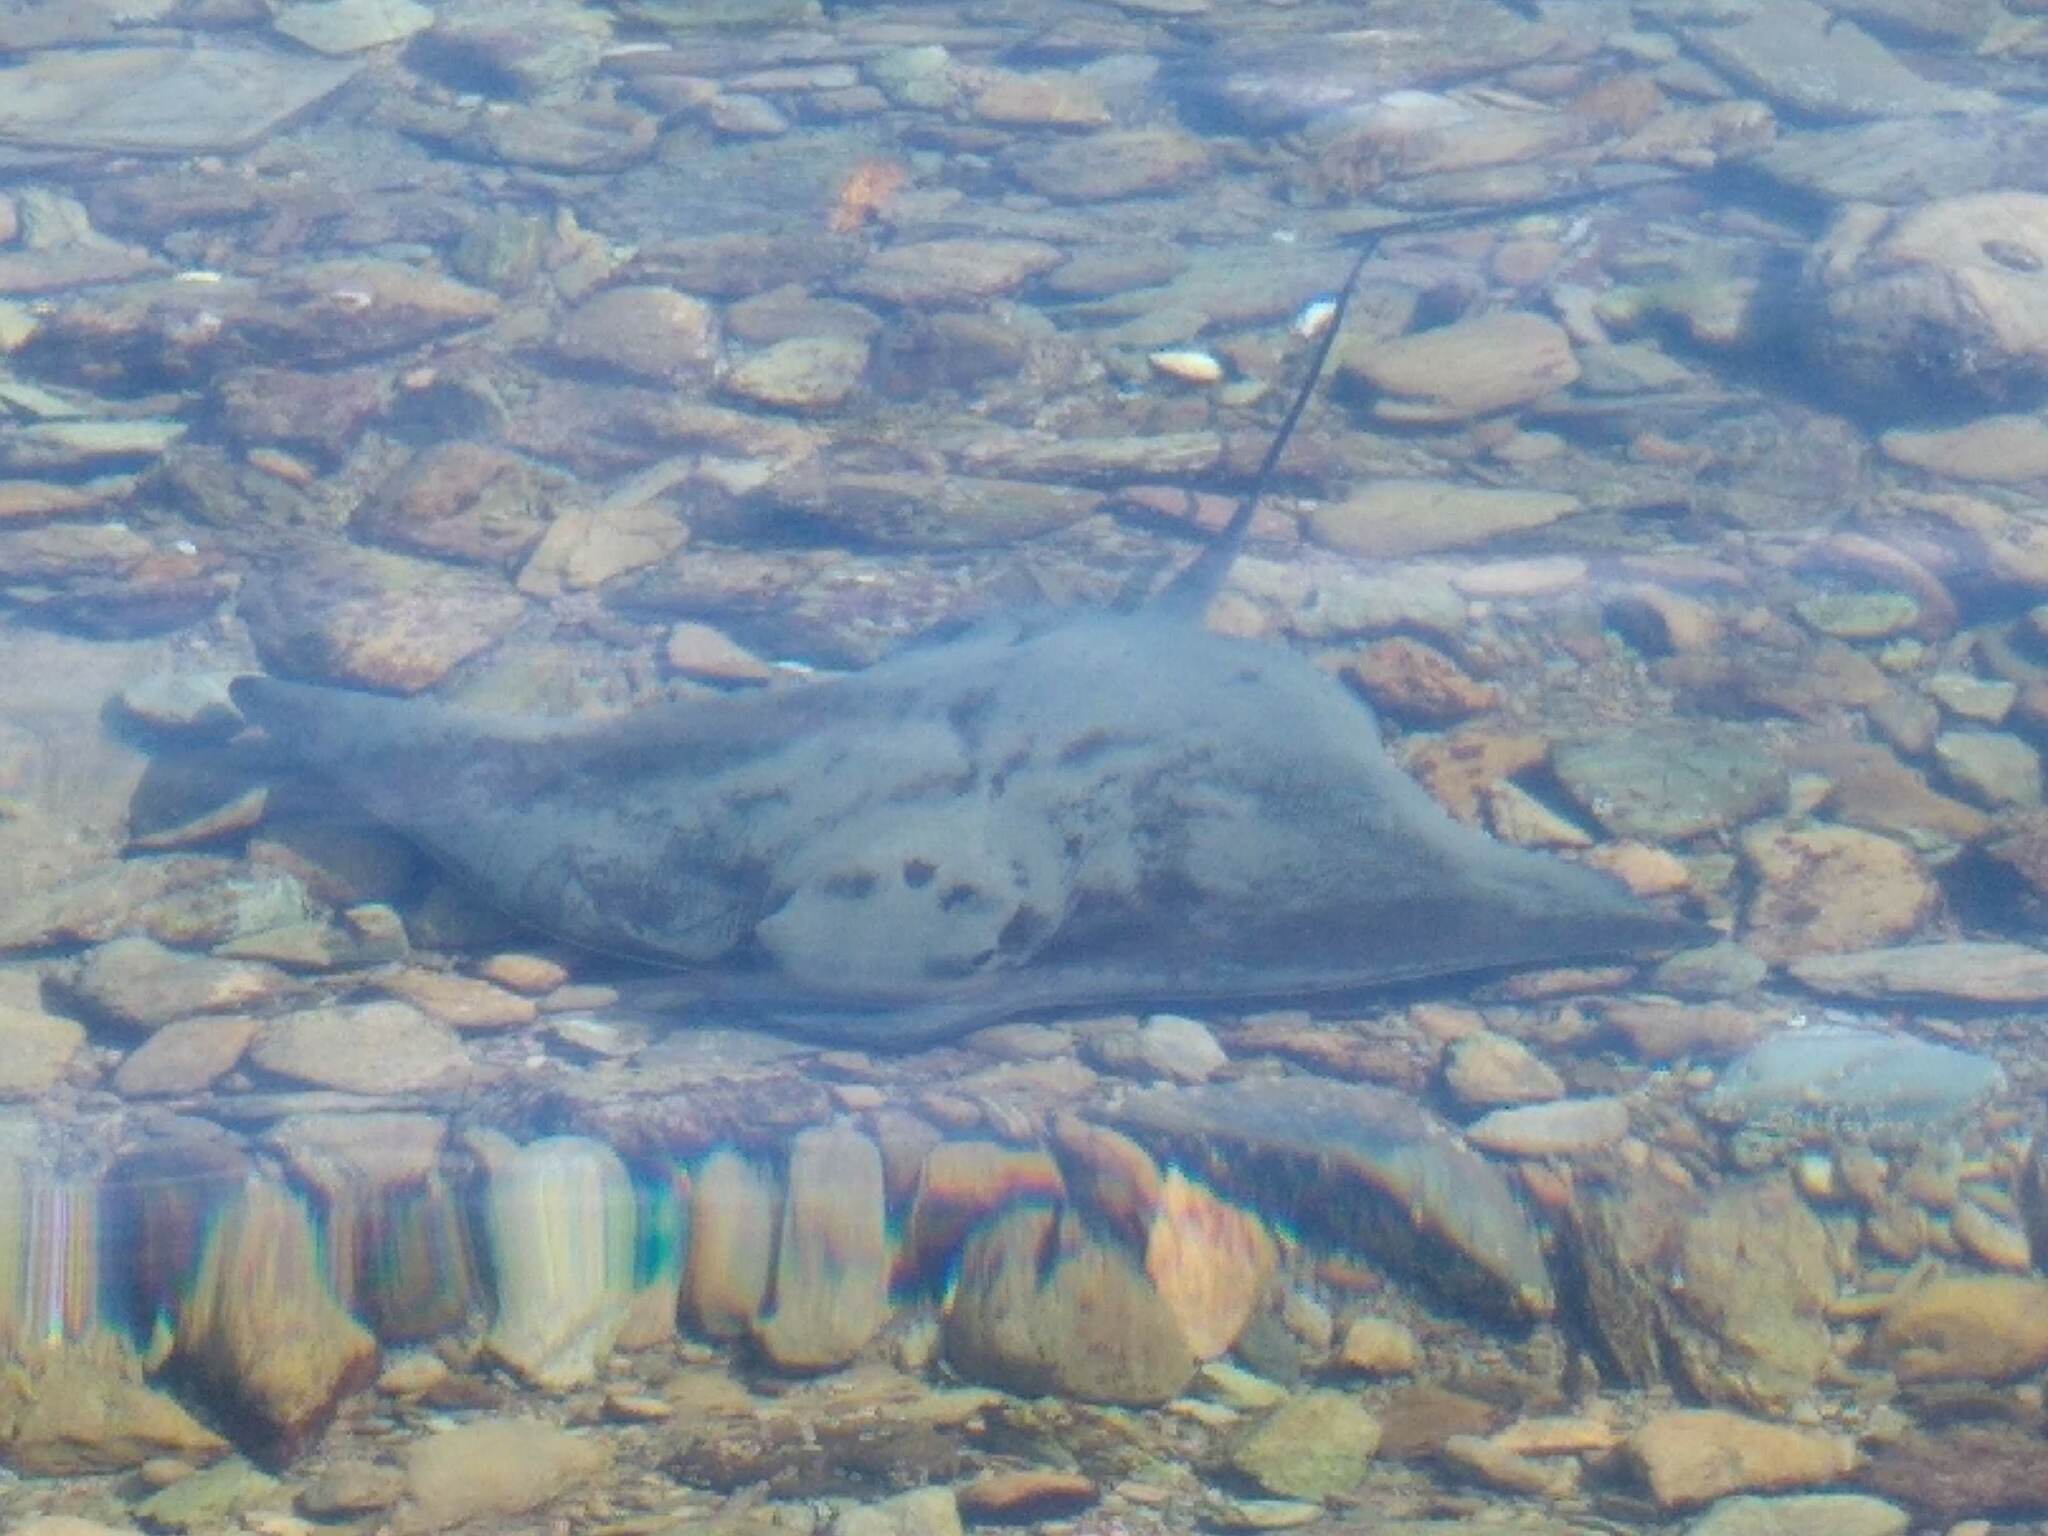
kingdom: Animalia
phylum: Chordata
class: Elasmobranchii
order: Myliobatiformes
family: Myliobatidae
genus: Myliobatis
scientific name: Myliobatis tenuicaudatus
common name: Eagle ray
